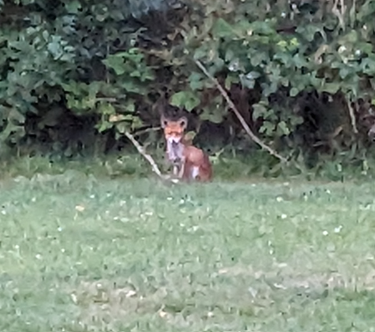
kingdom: Animalia
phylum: Chordata
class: Mammalia
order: Carnivora
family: Canidae
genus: Vulpes
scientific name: Vulpes vulpes
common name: Red fox
